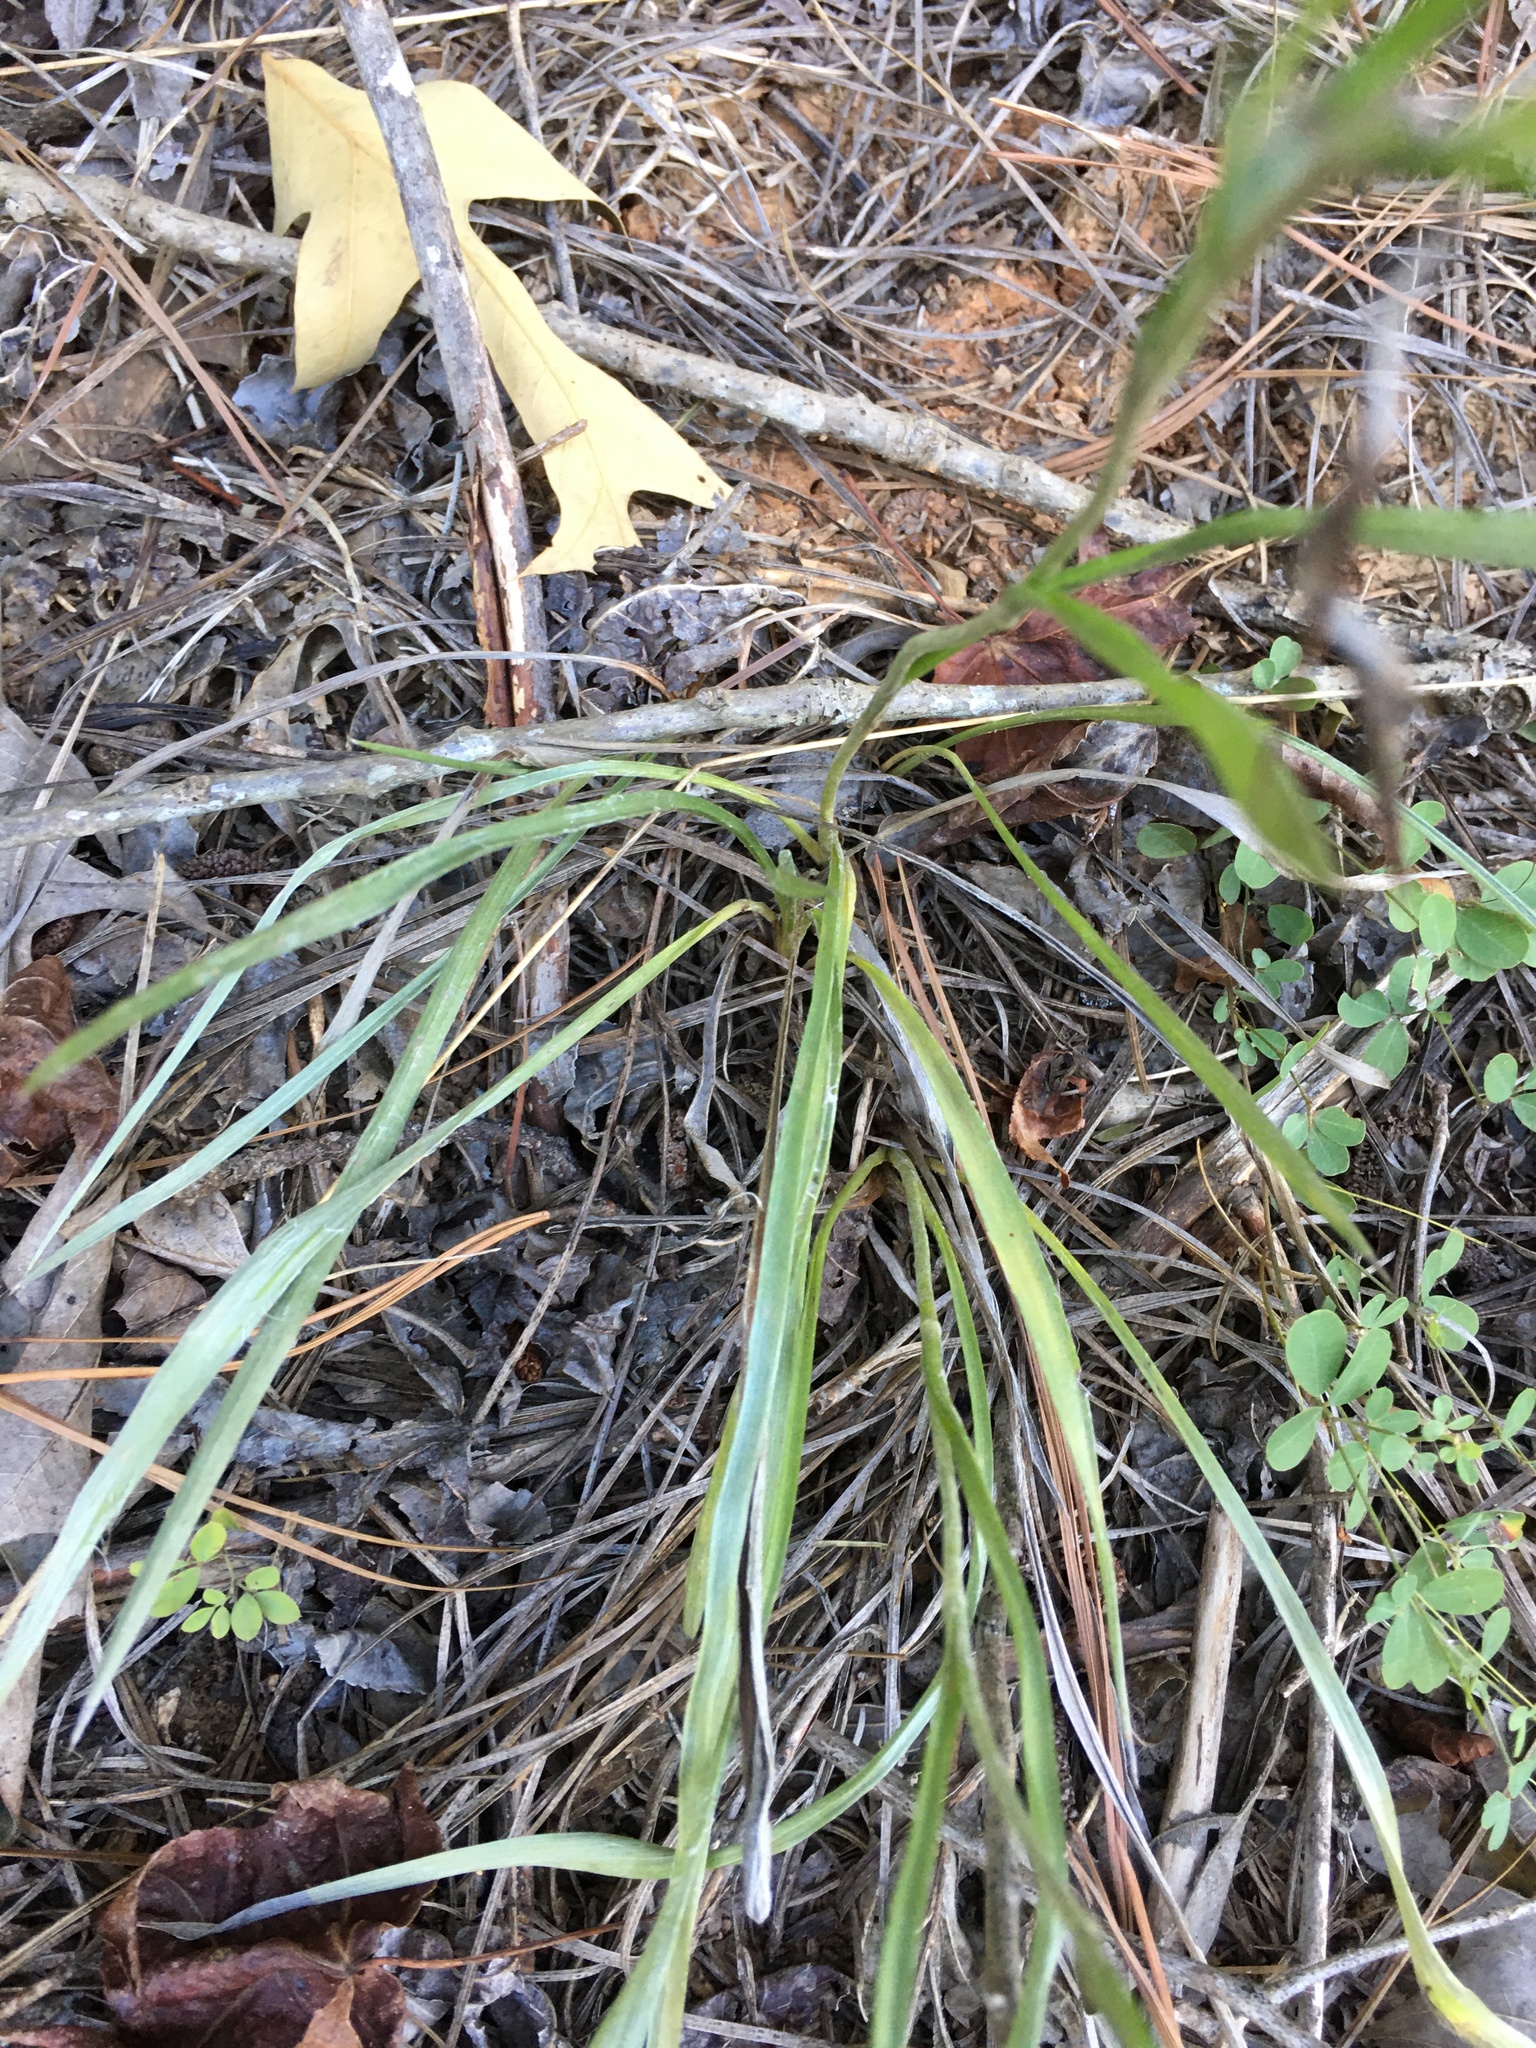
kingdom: Plantae
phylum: Tracheophyta
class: Magnoliopsida
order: Asterales
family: Asteraceae
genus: Pityopsis
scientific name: Pityopsis aspera
